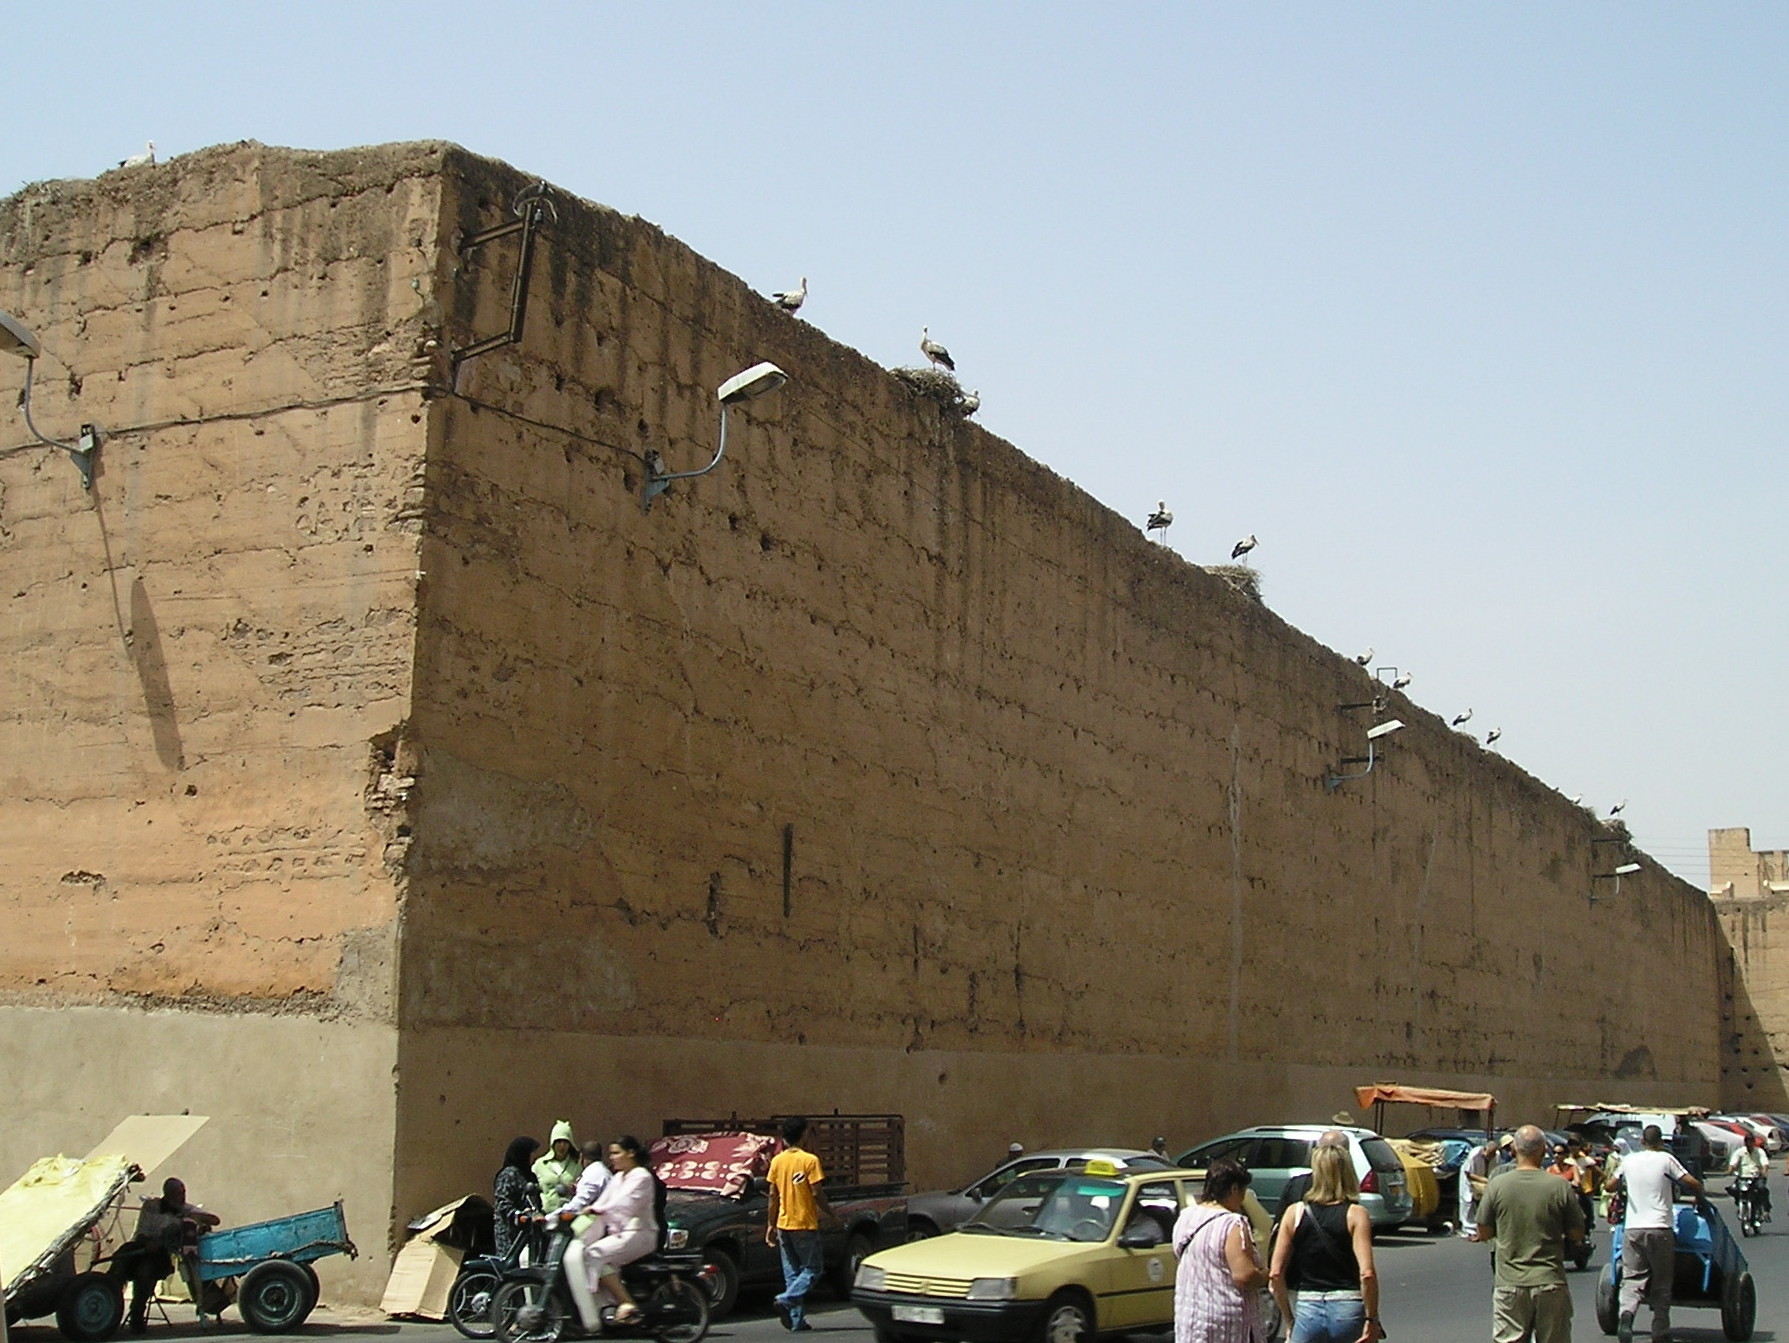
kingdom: Animalia
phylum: Chordata
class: Aves
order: Ciconiiformes
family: Ciconiidae
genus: Ciconia
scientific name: Ciconia ciconia
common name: White stork
